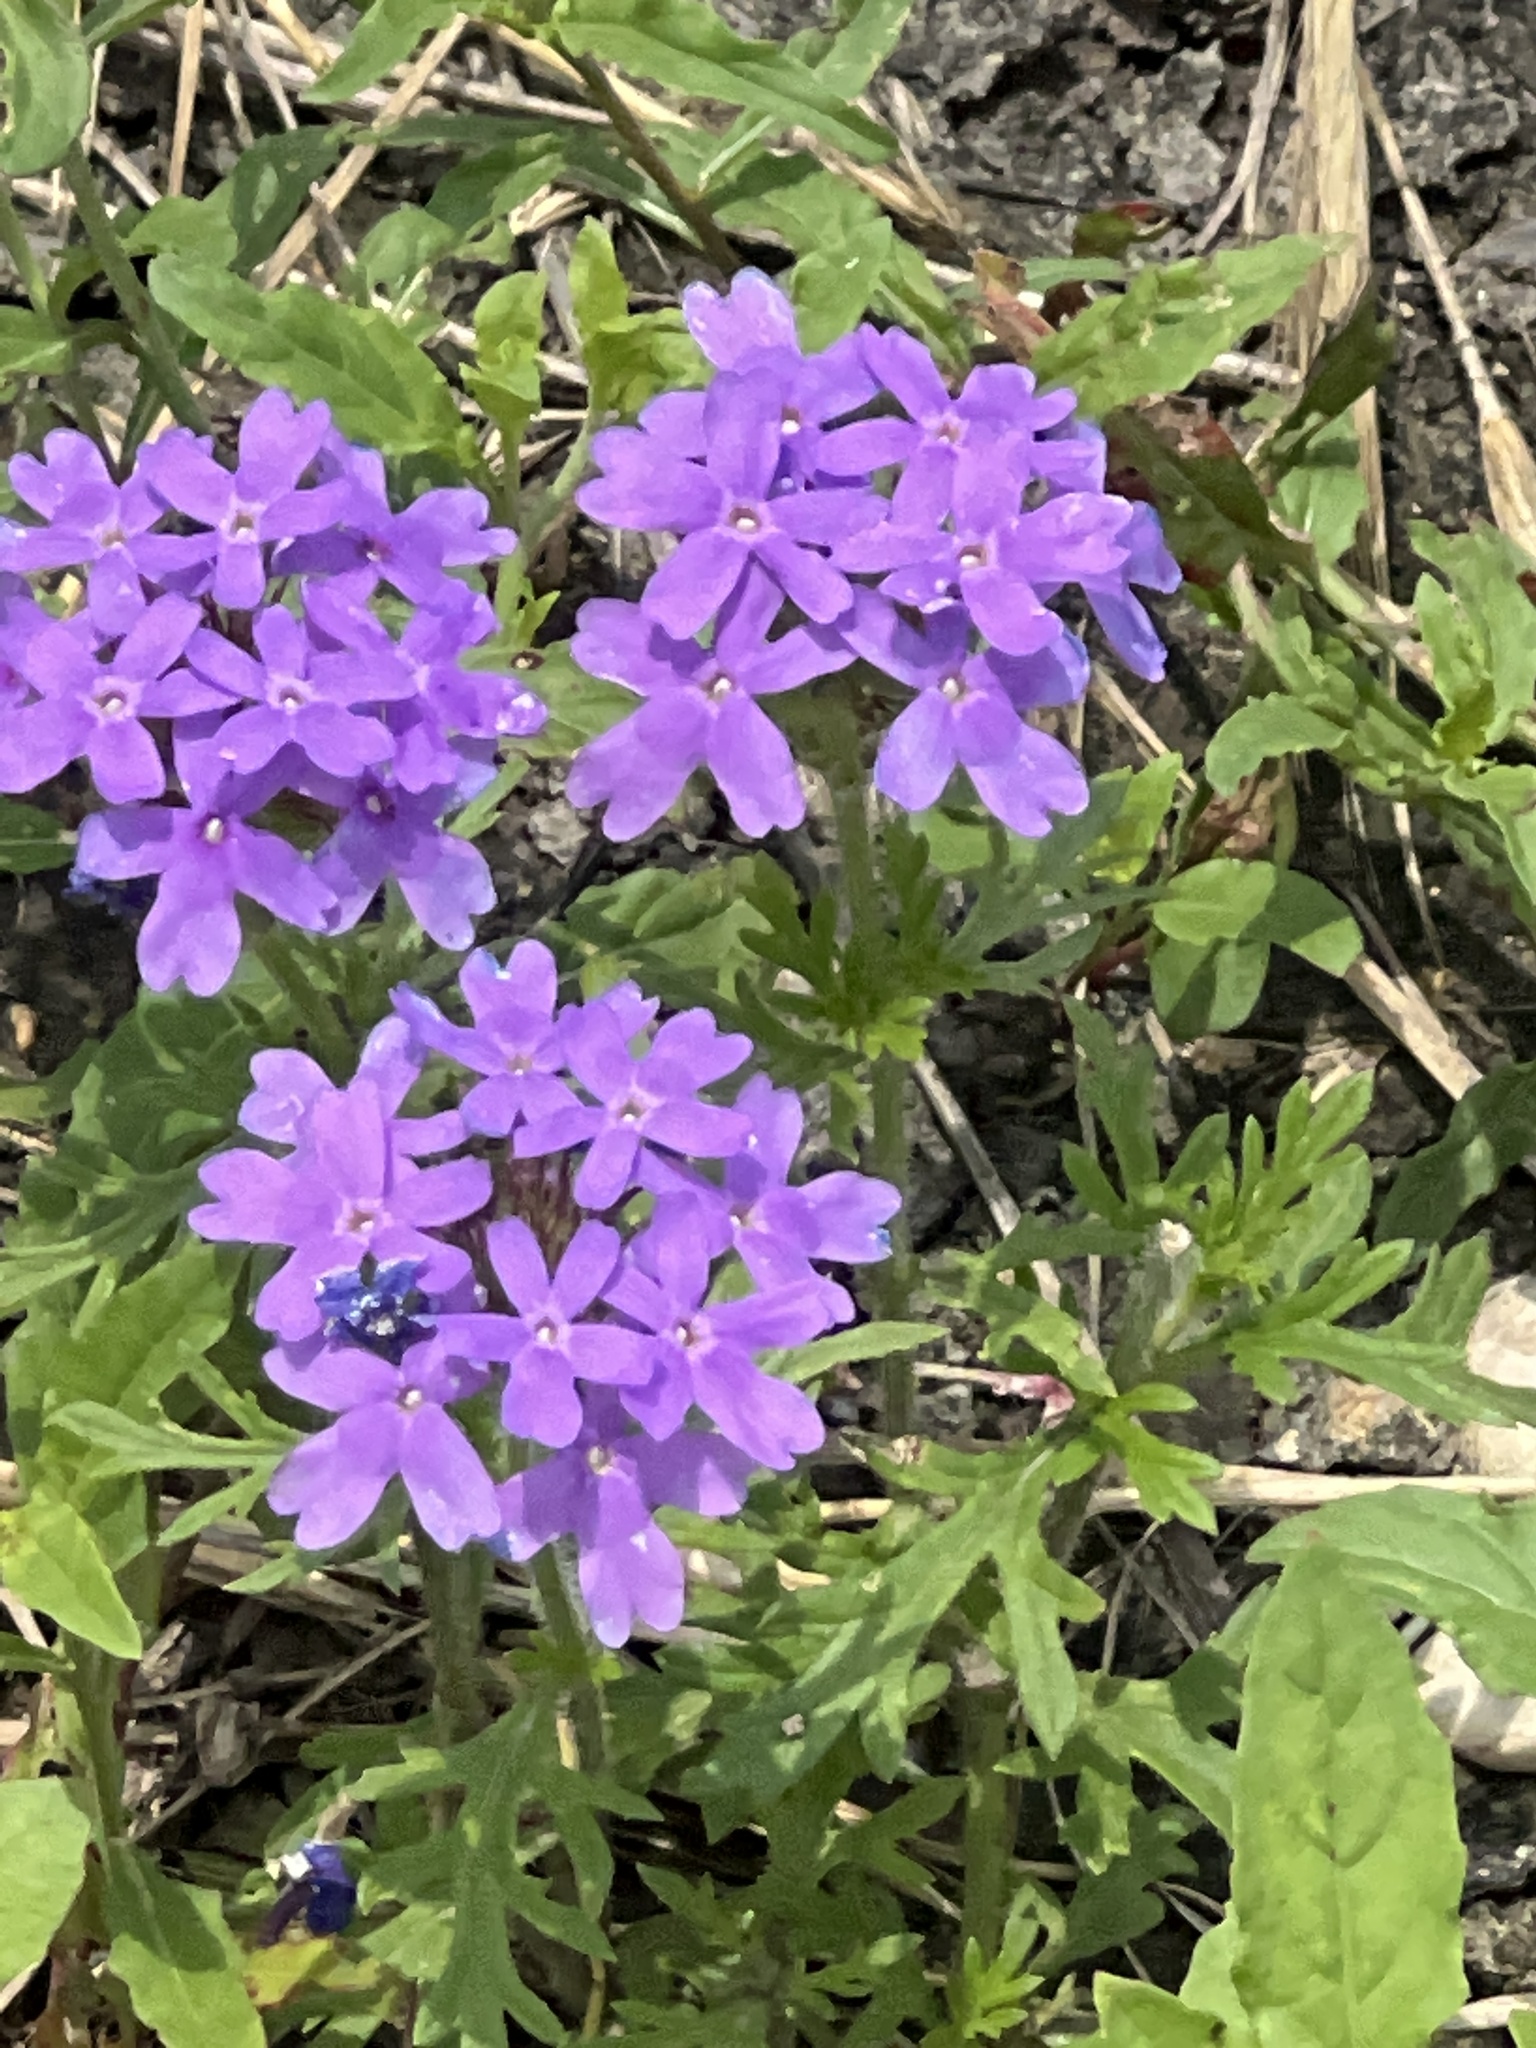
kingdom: Plantae
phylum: Tracheophyta
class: Magnoliopsida
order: Lamiales
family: Verbenaceae
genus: Verbena
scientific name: Verbena bipinnatifida
